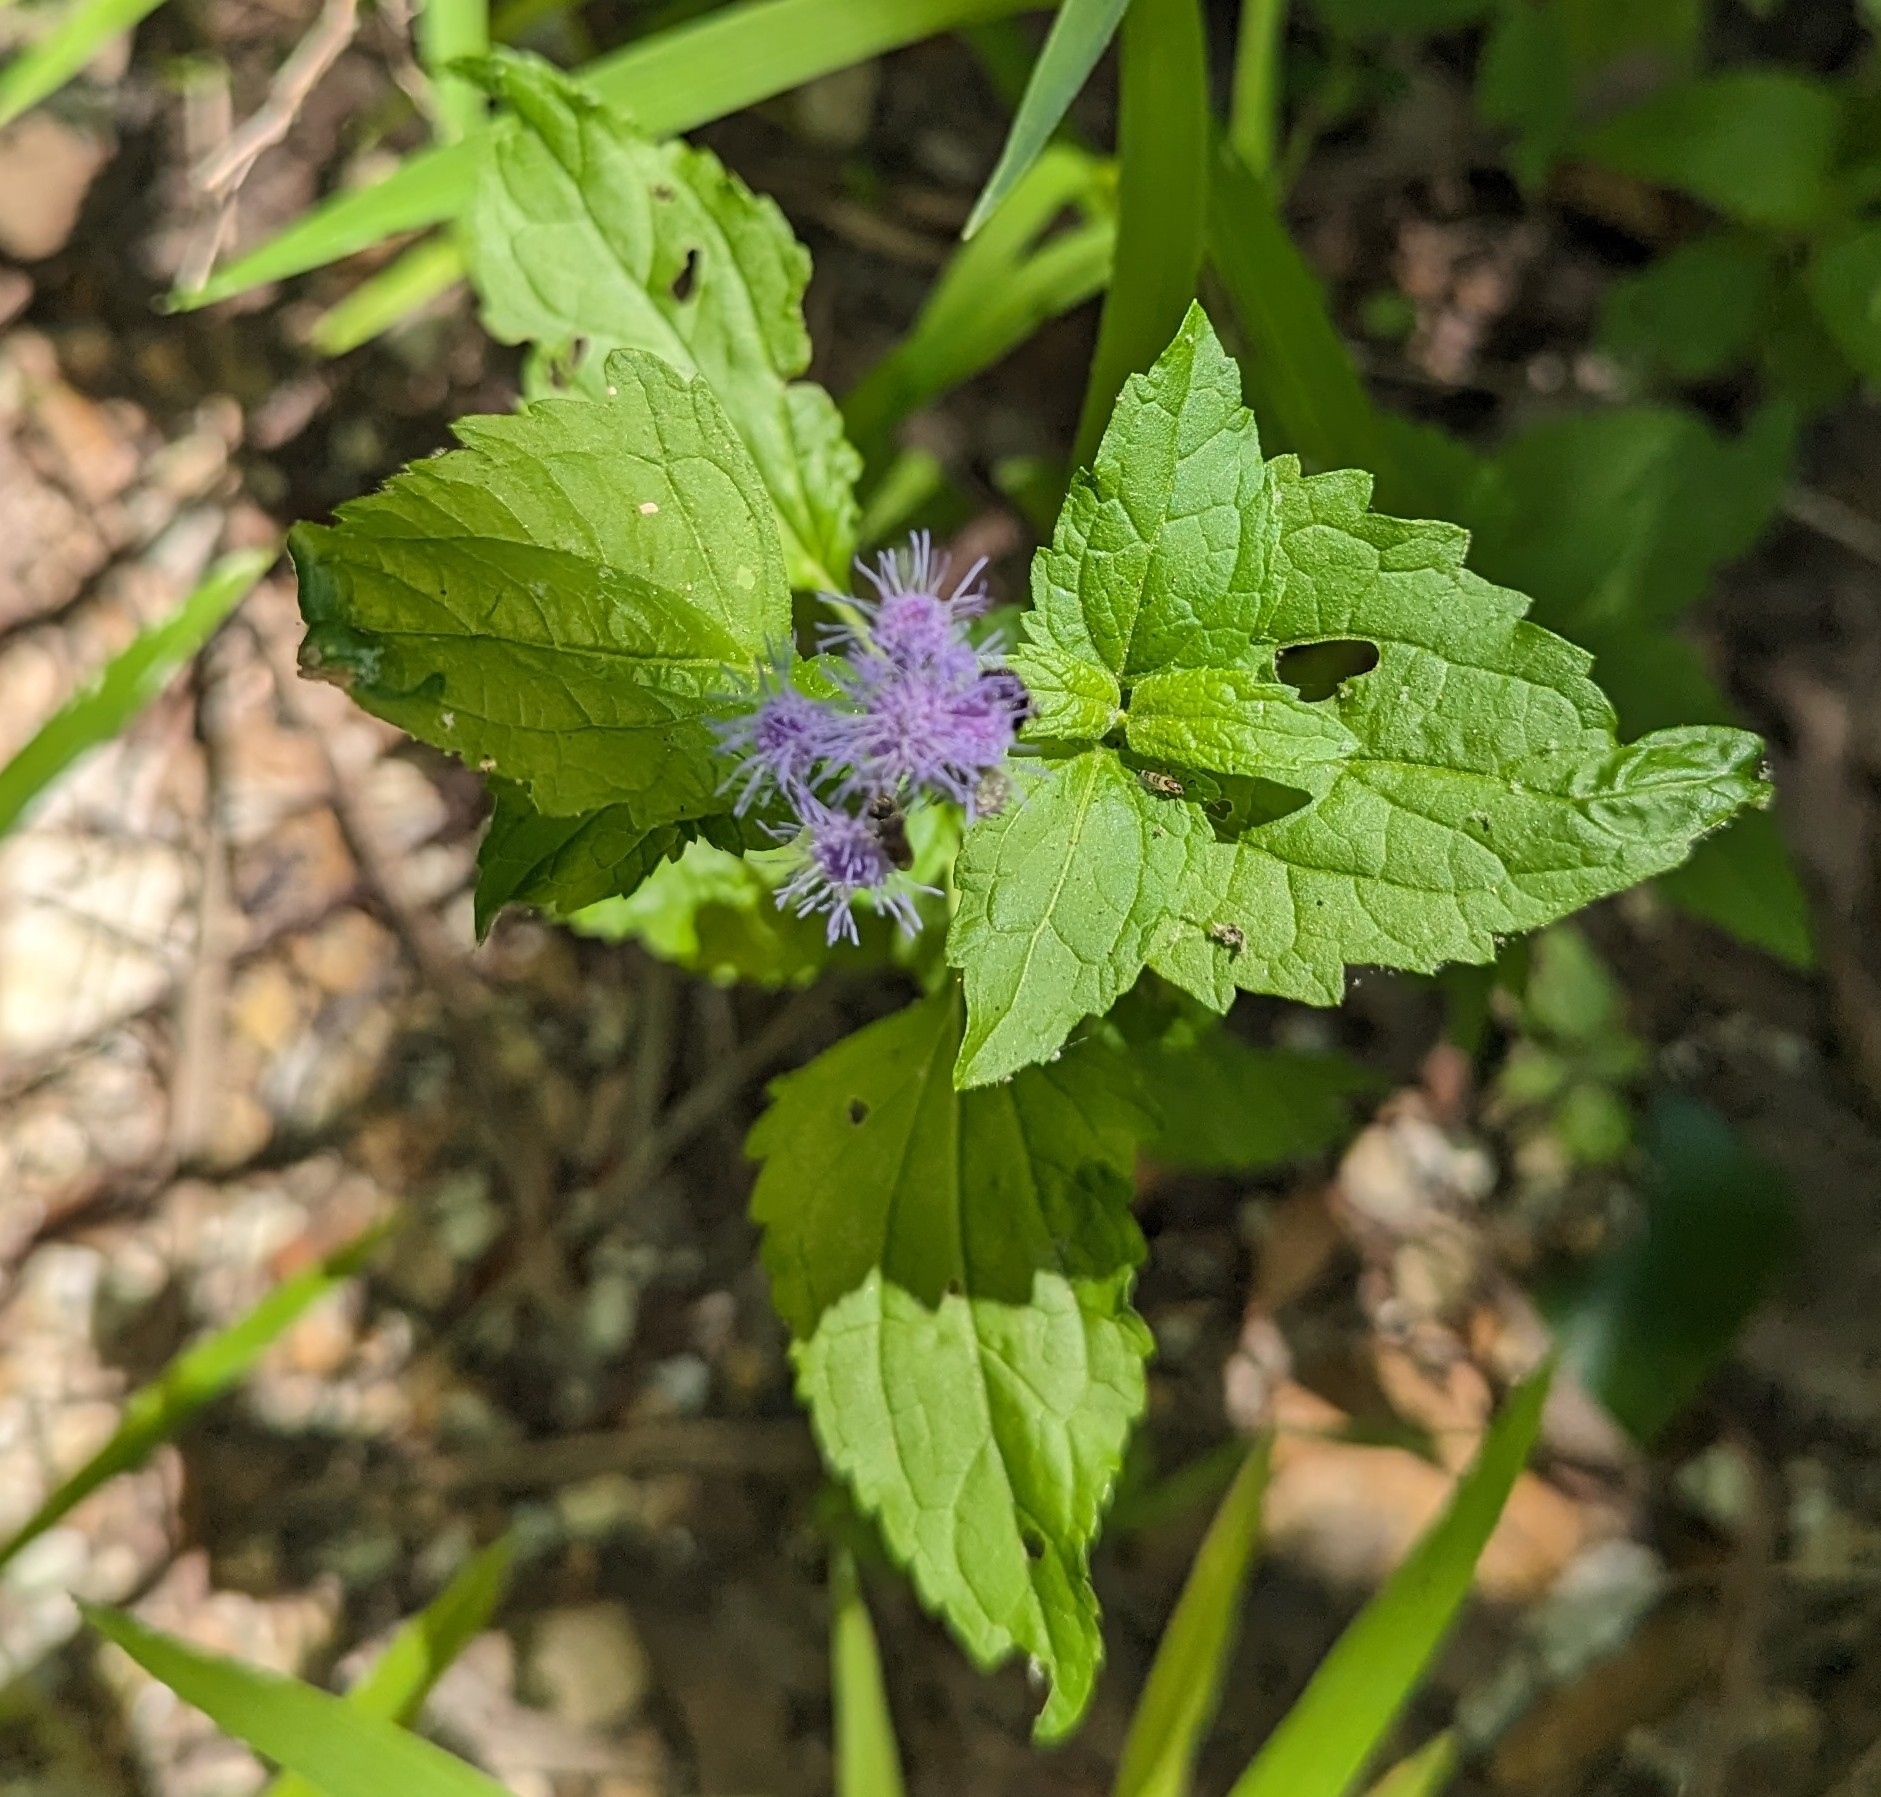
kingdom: Plantae
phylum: Tracheophyta
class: Magnoliopsida
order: Asterales
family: Asteraceae
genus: Conoclinium
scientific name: Conoclinium coelestinum
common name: Blue mistflower
